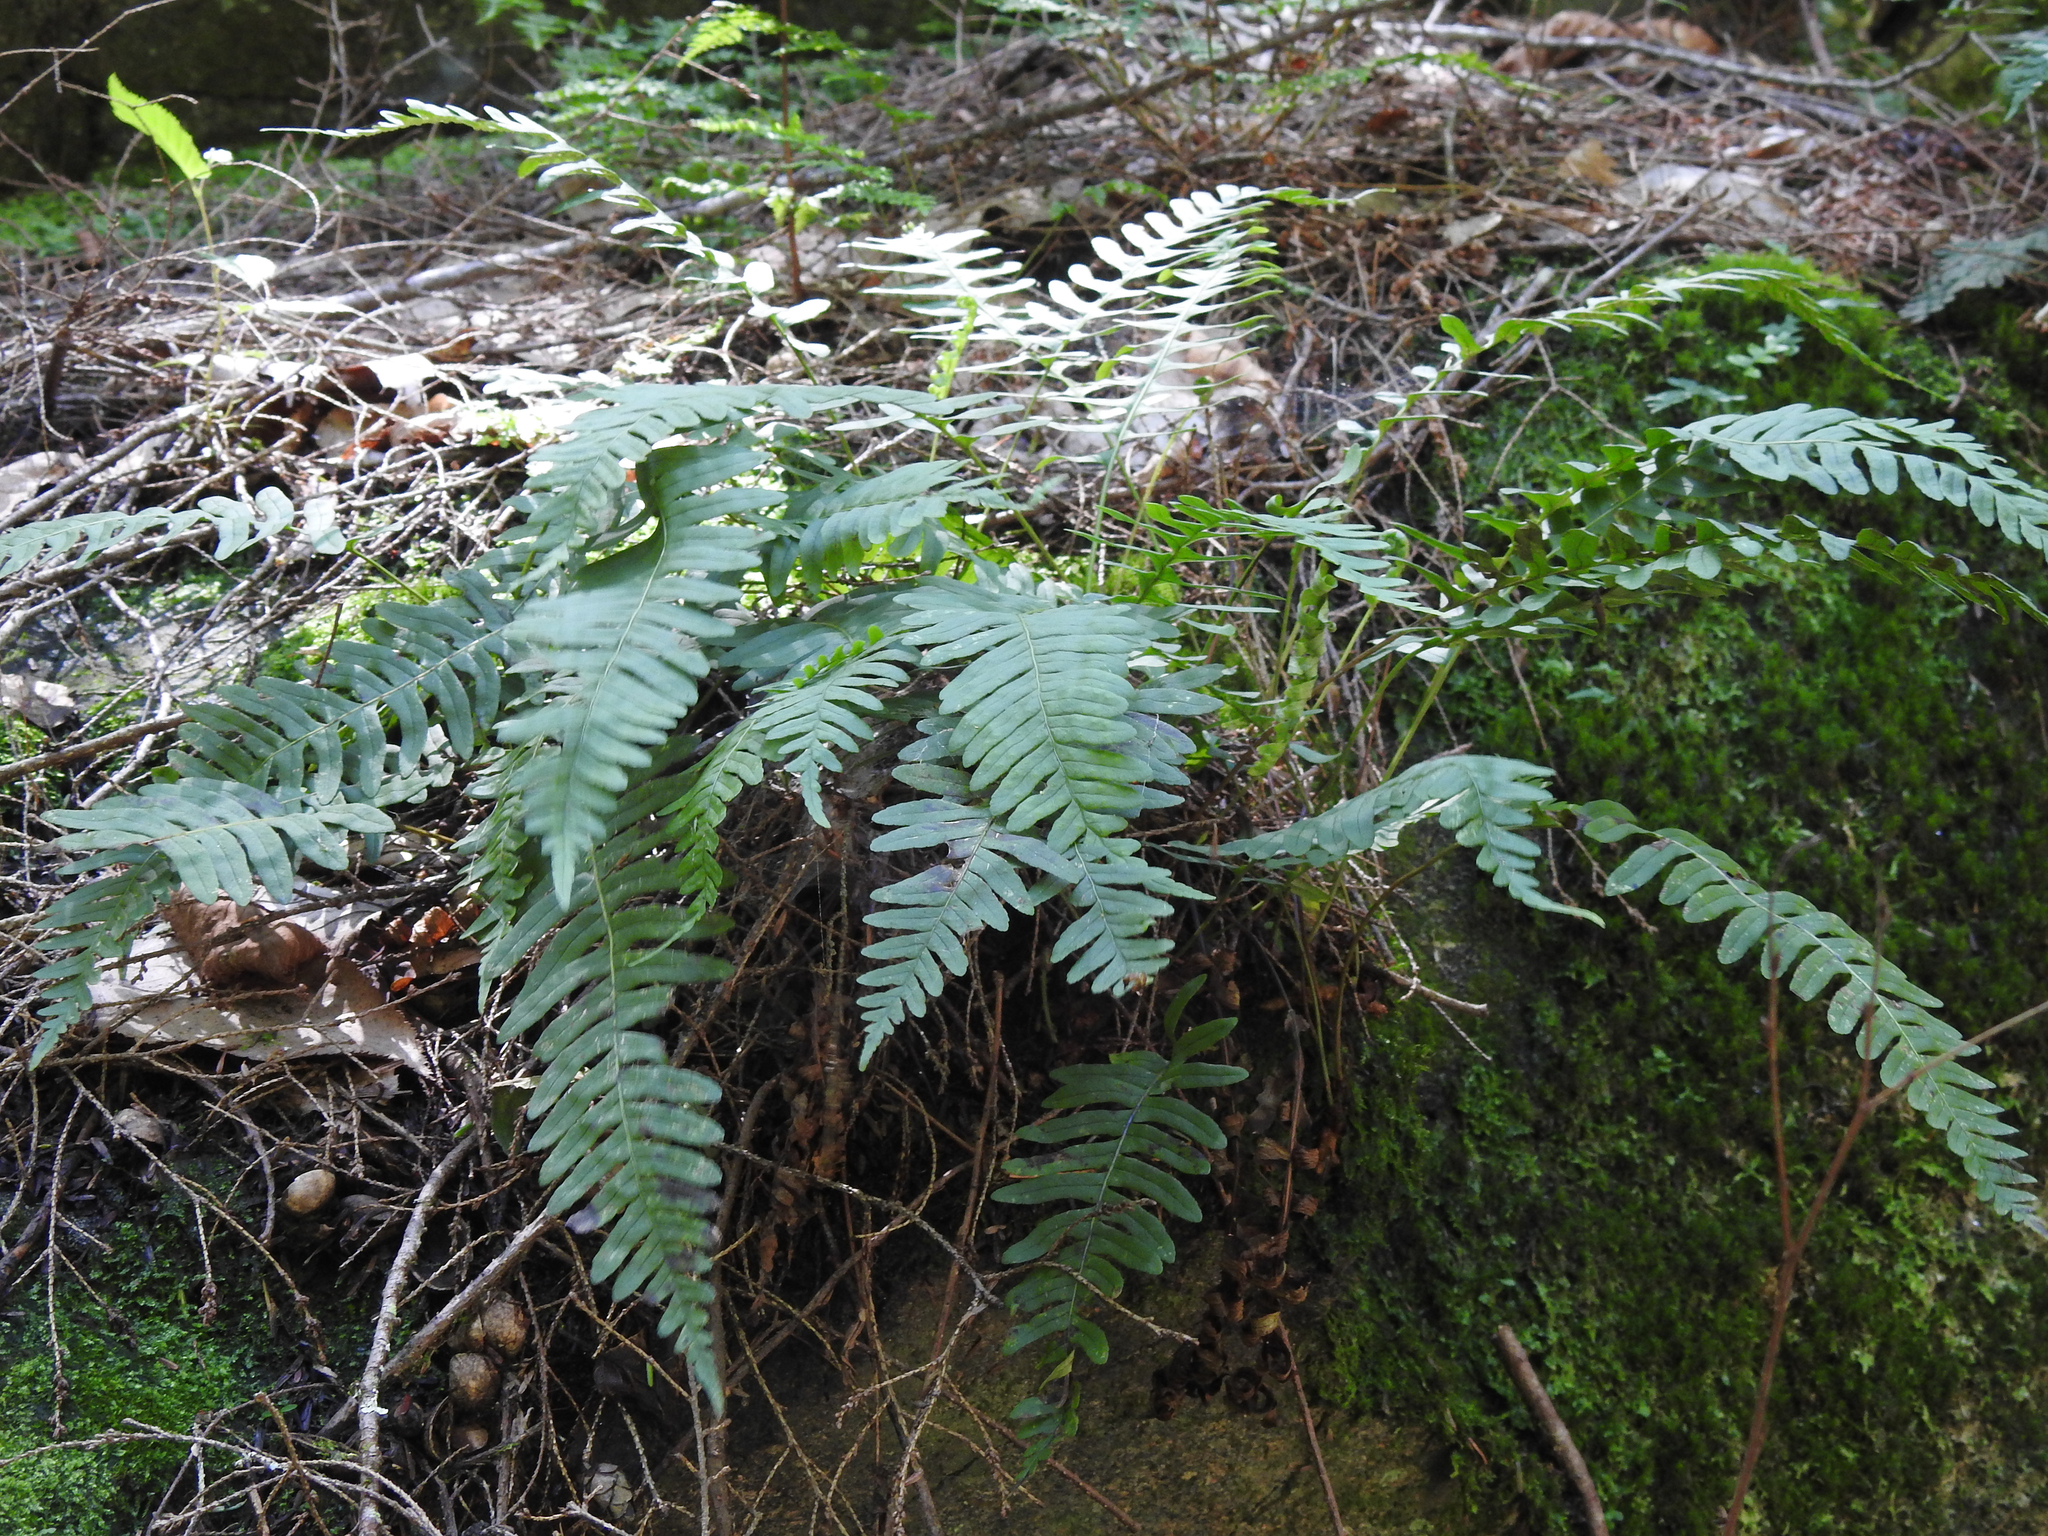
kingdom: Plantae
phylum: Tracheophyta
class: Polypodiopsida
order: Polypodiales
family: Polypodiaceae
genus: Polypodium
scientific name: Polypodium virginianum
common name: American wall fern
